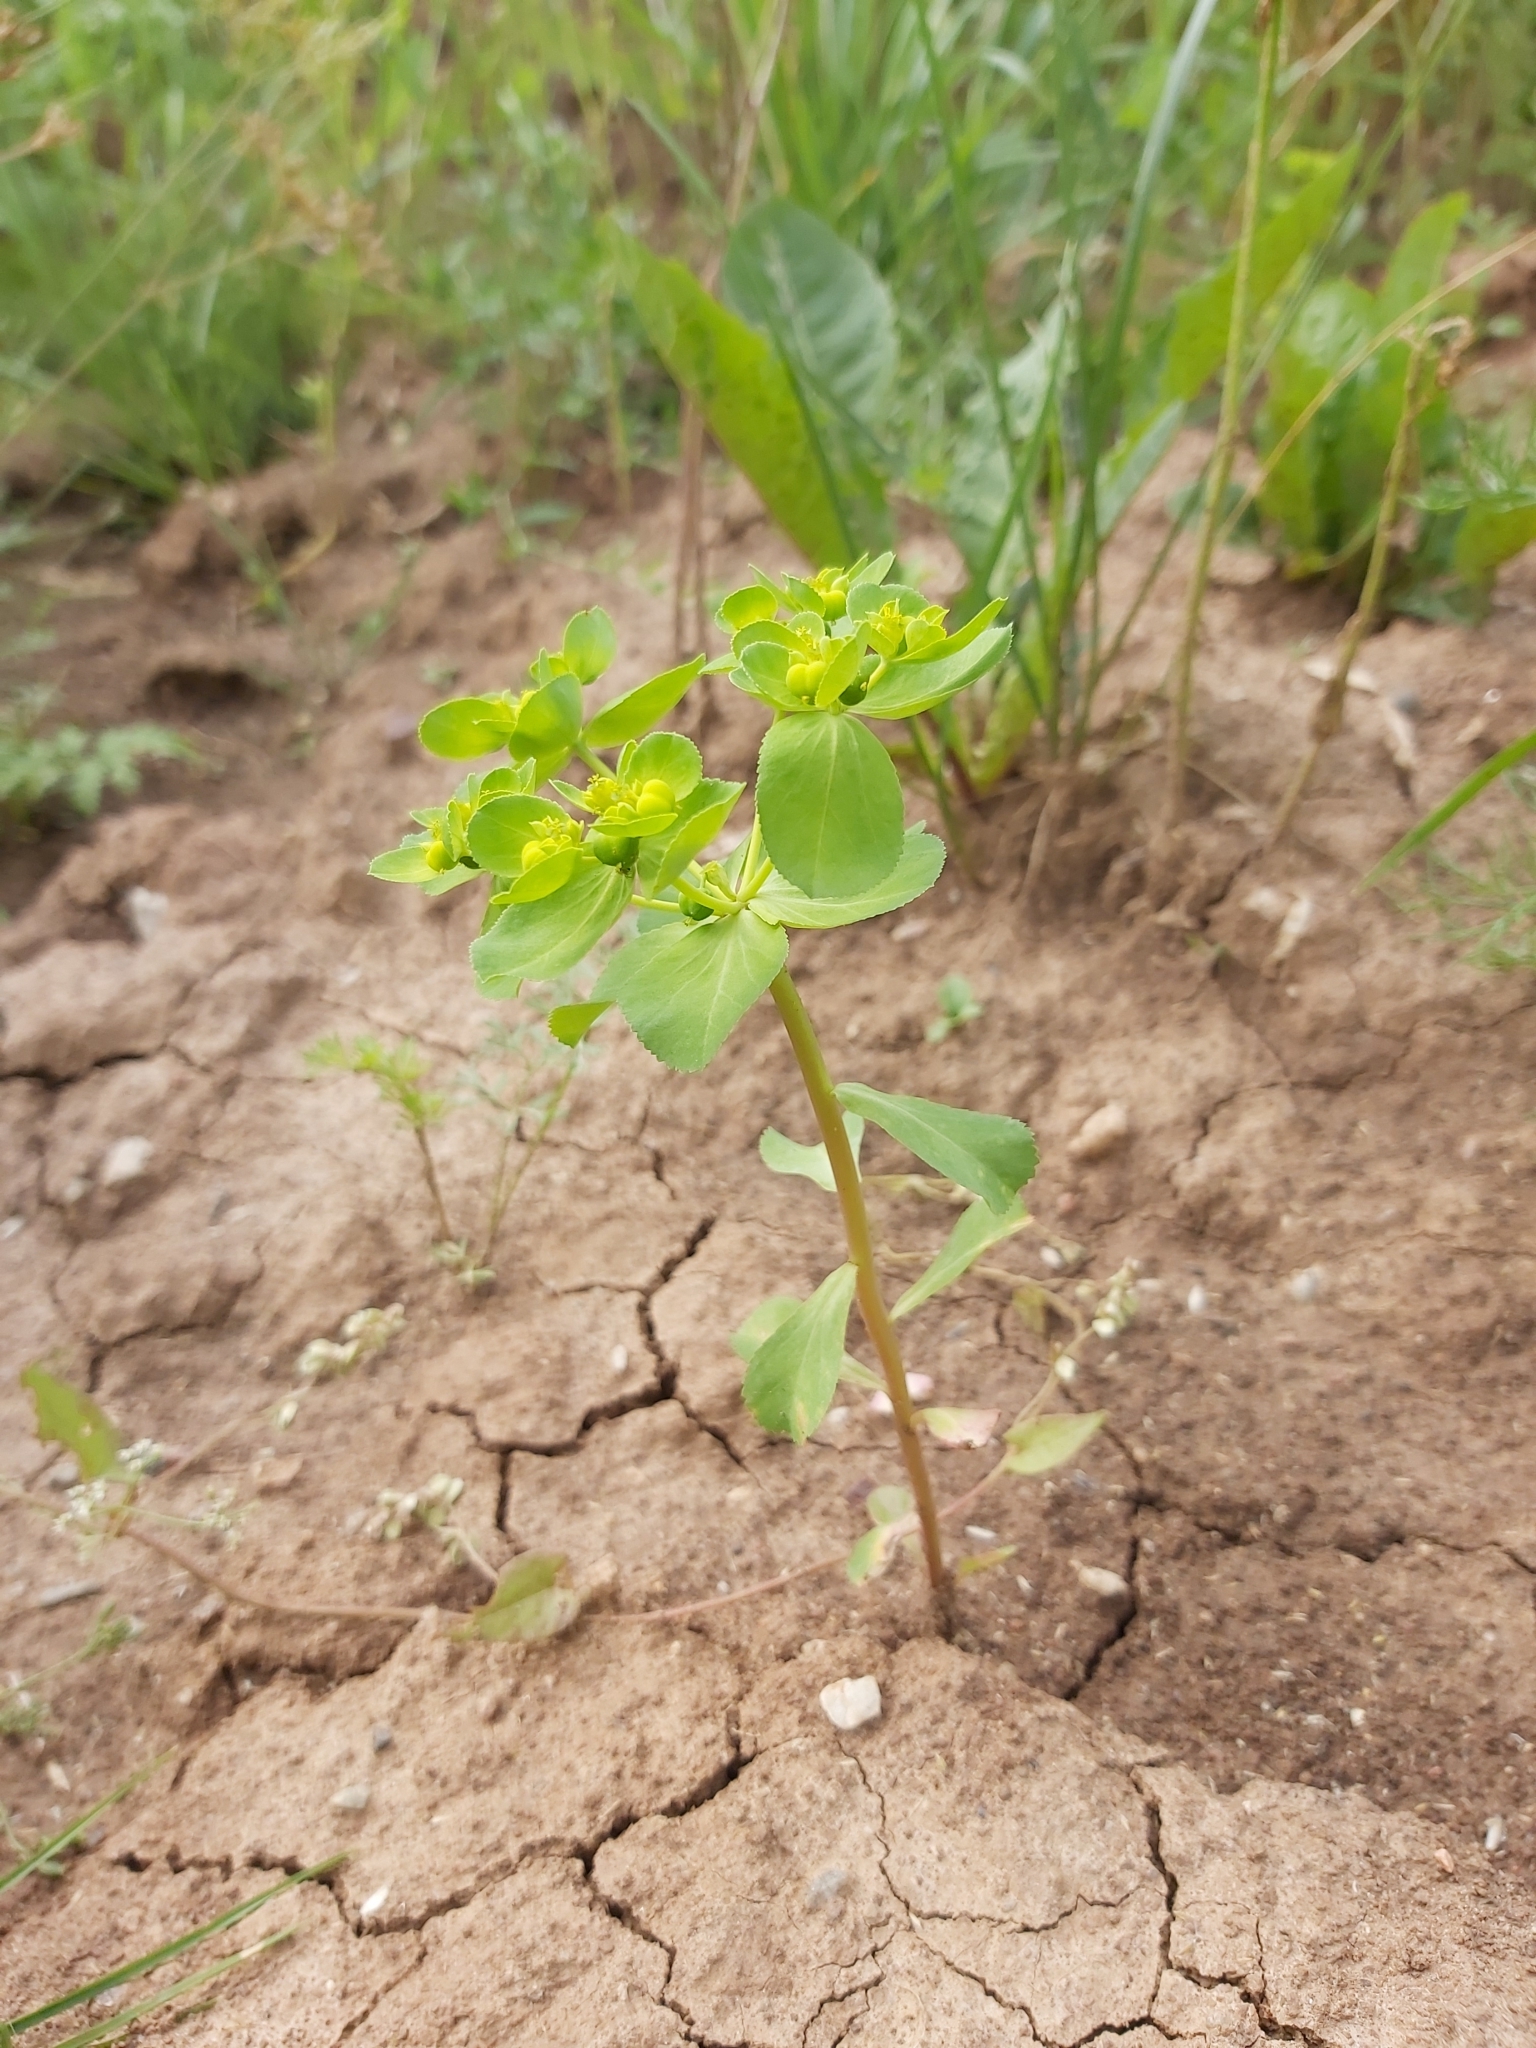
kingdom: Plantae
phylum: Tracheophyta
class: Magnoliopsida
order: Malpighiales
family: Euphorbiaceae
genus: Euphorbia
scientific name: Euphorbia helioscopia
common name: Sun spurge
